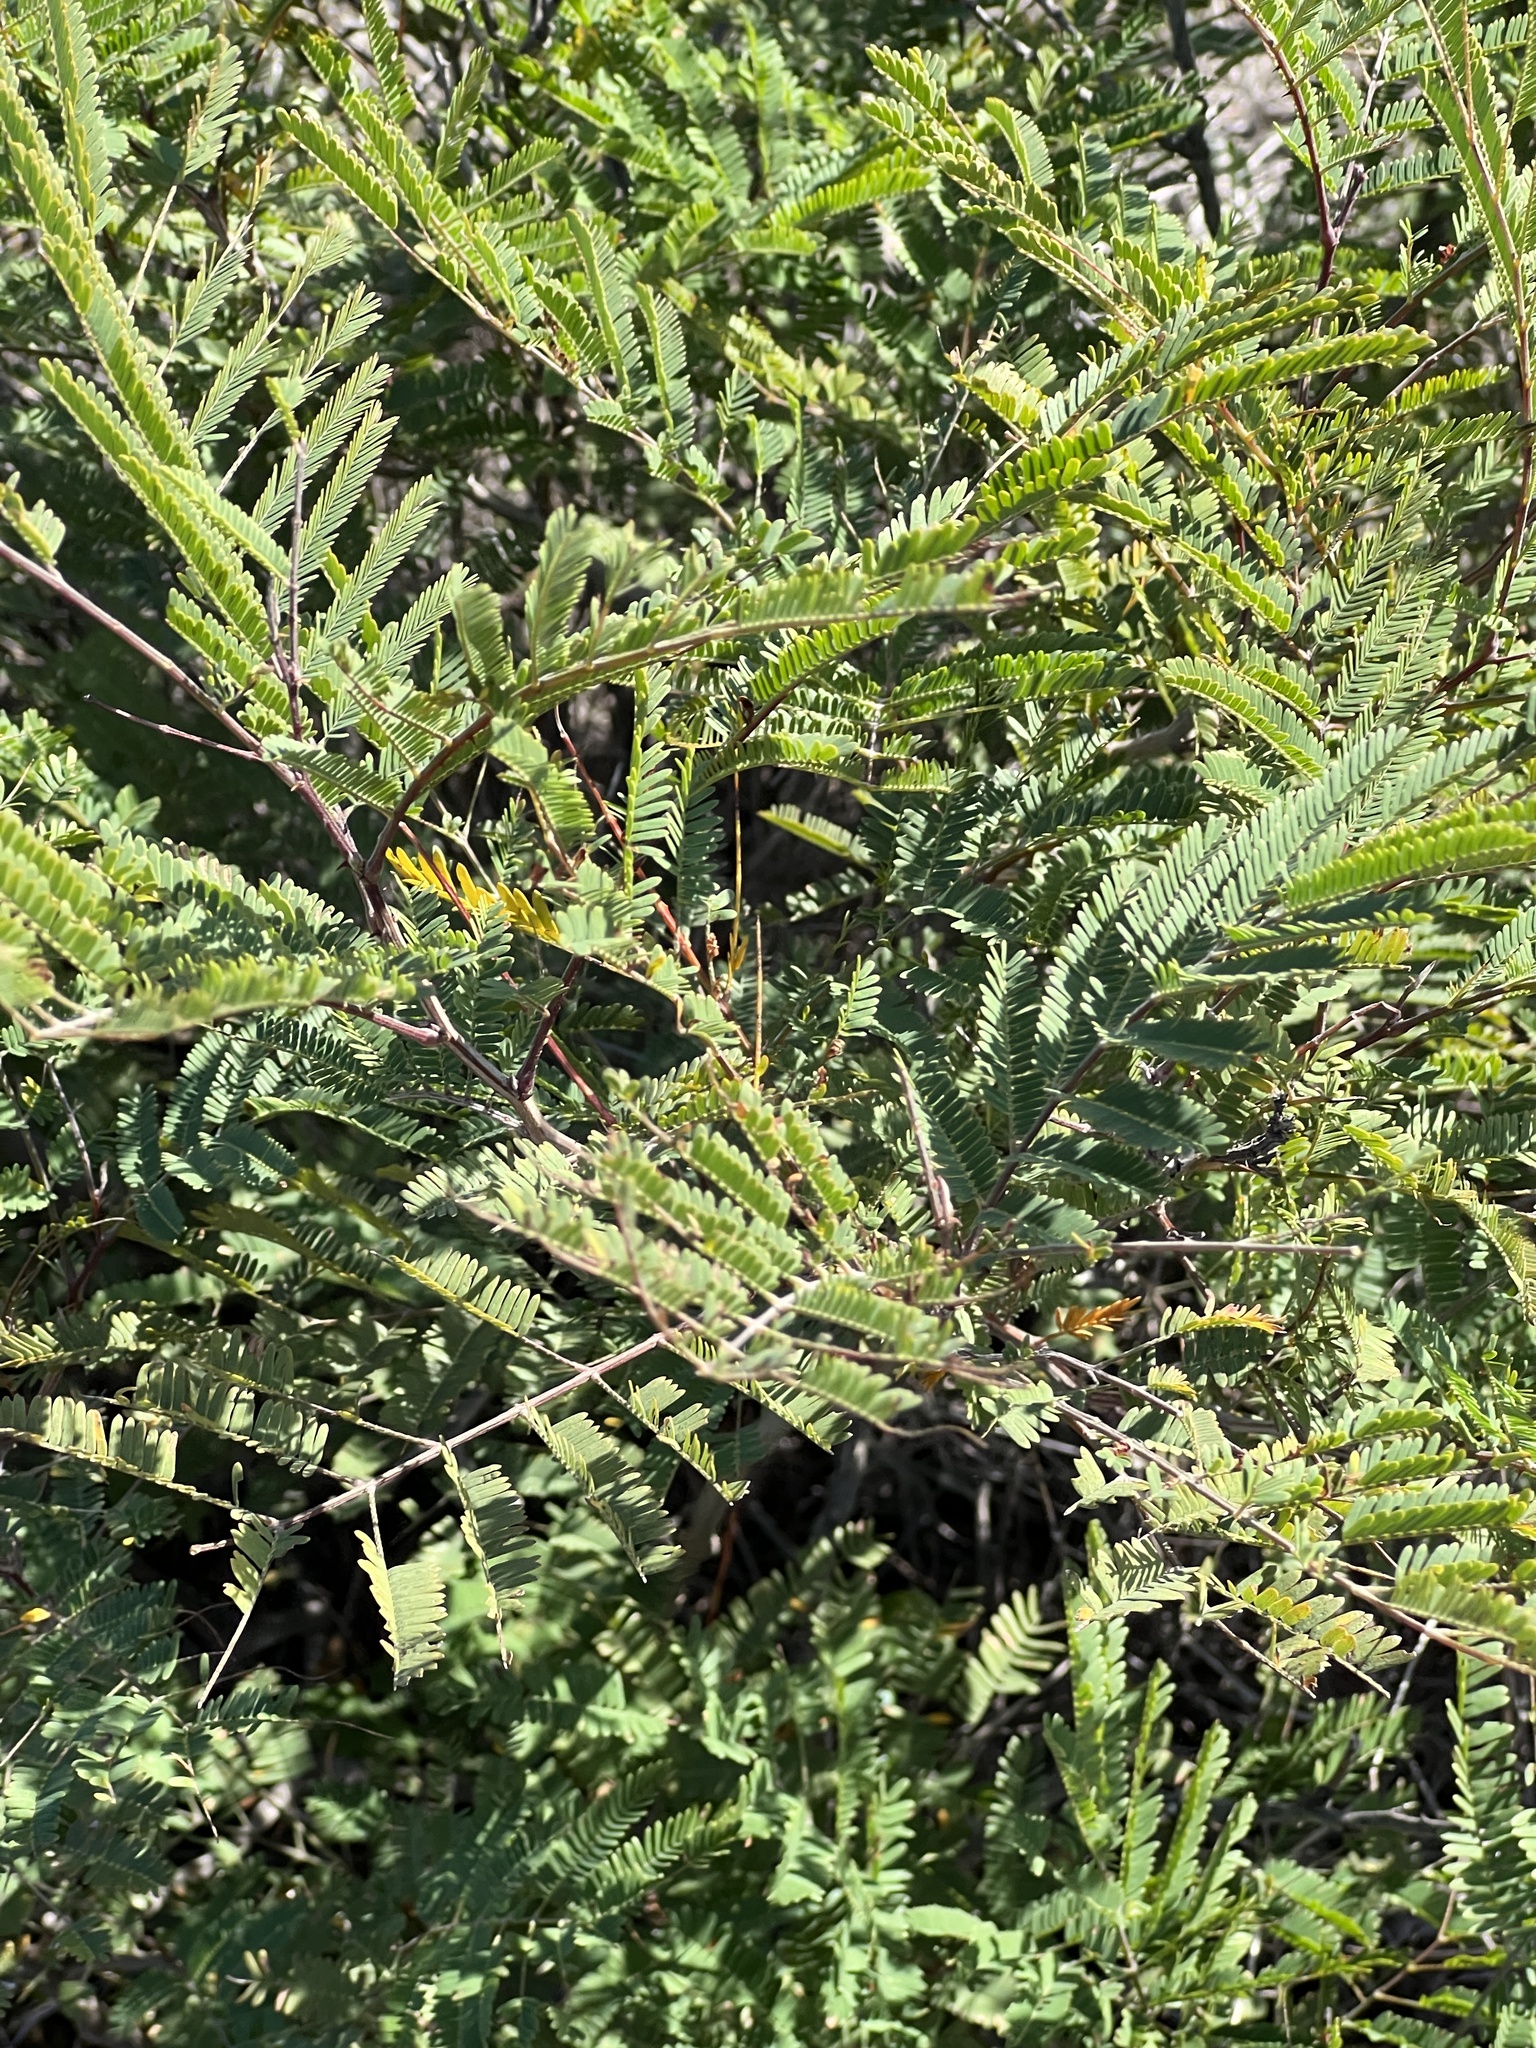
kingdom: Plantae
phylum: Tracheophyta
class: Magnoliopsida
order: Fabales
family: Fabaceae
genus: Senegalia
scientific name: Senegalia berlandieri
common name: Berlandier acacia
